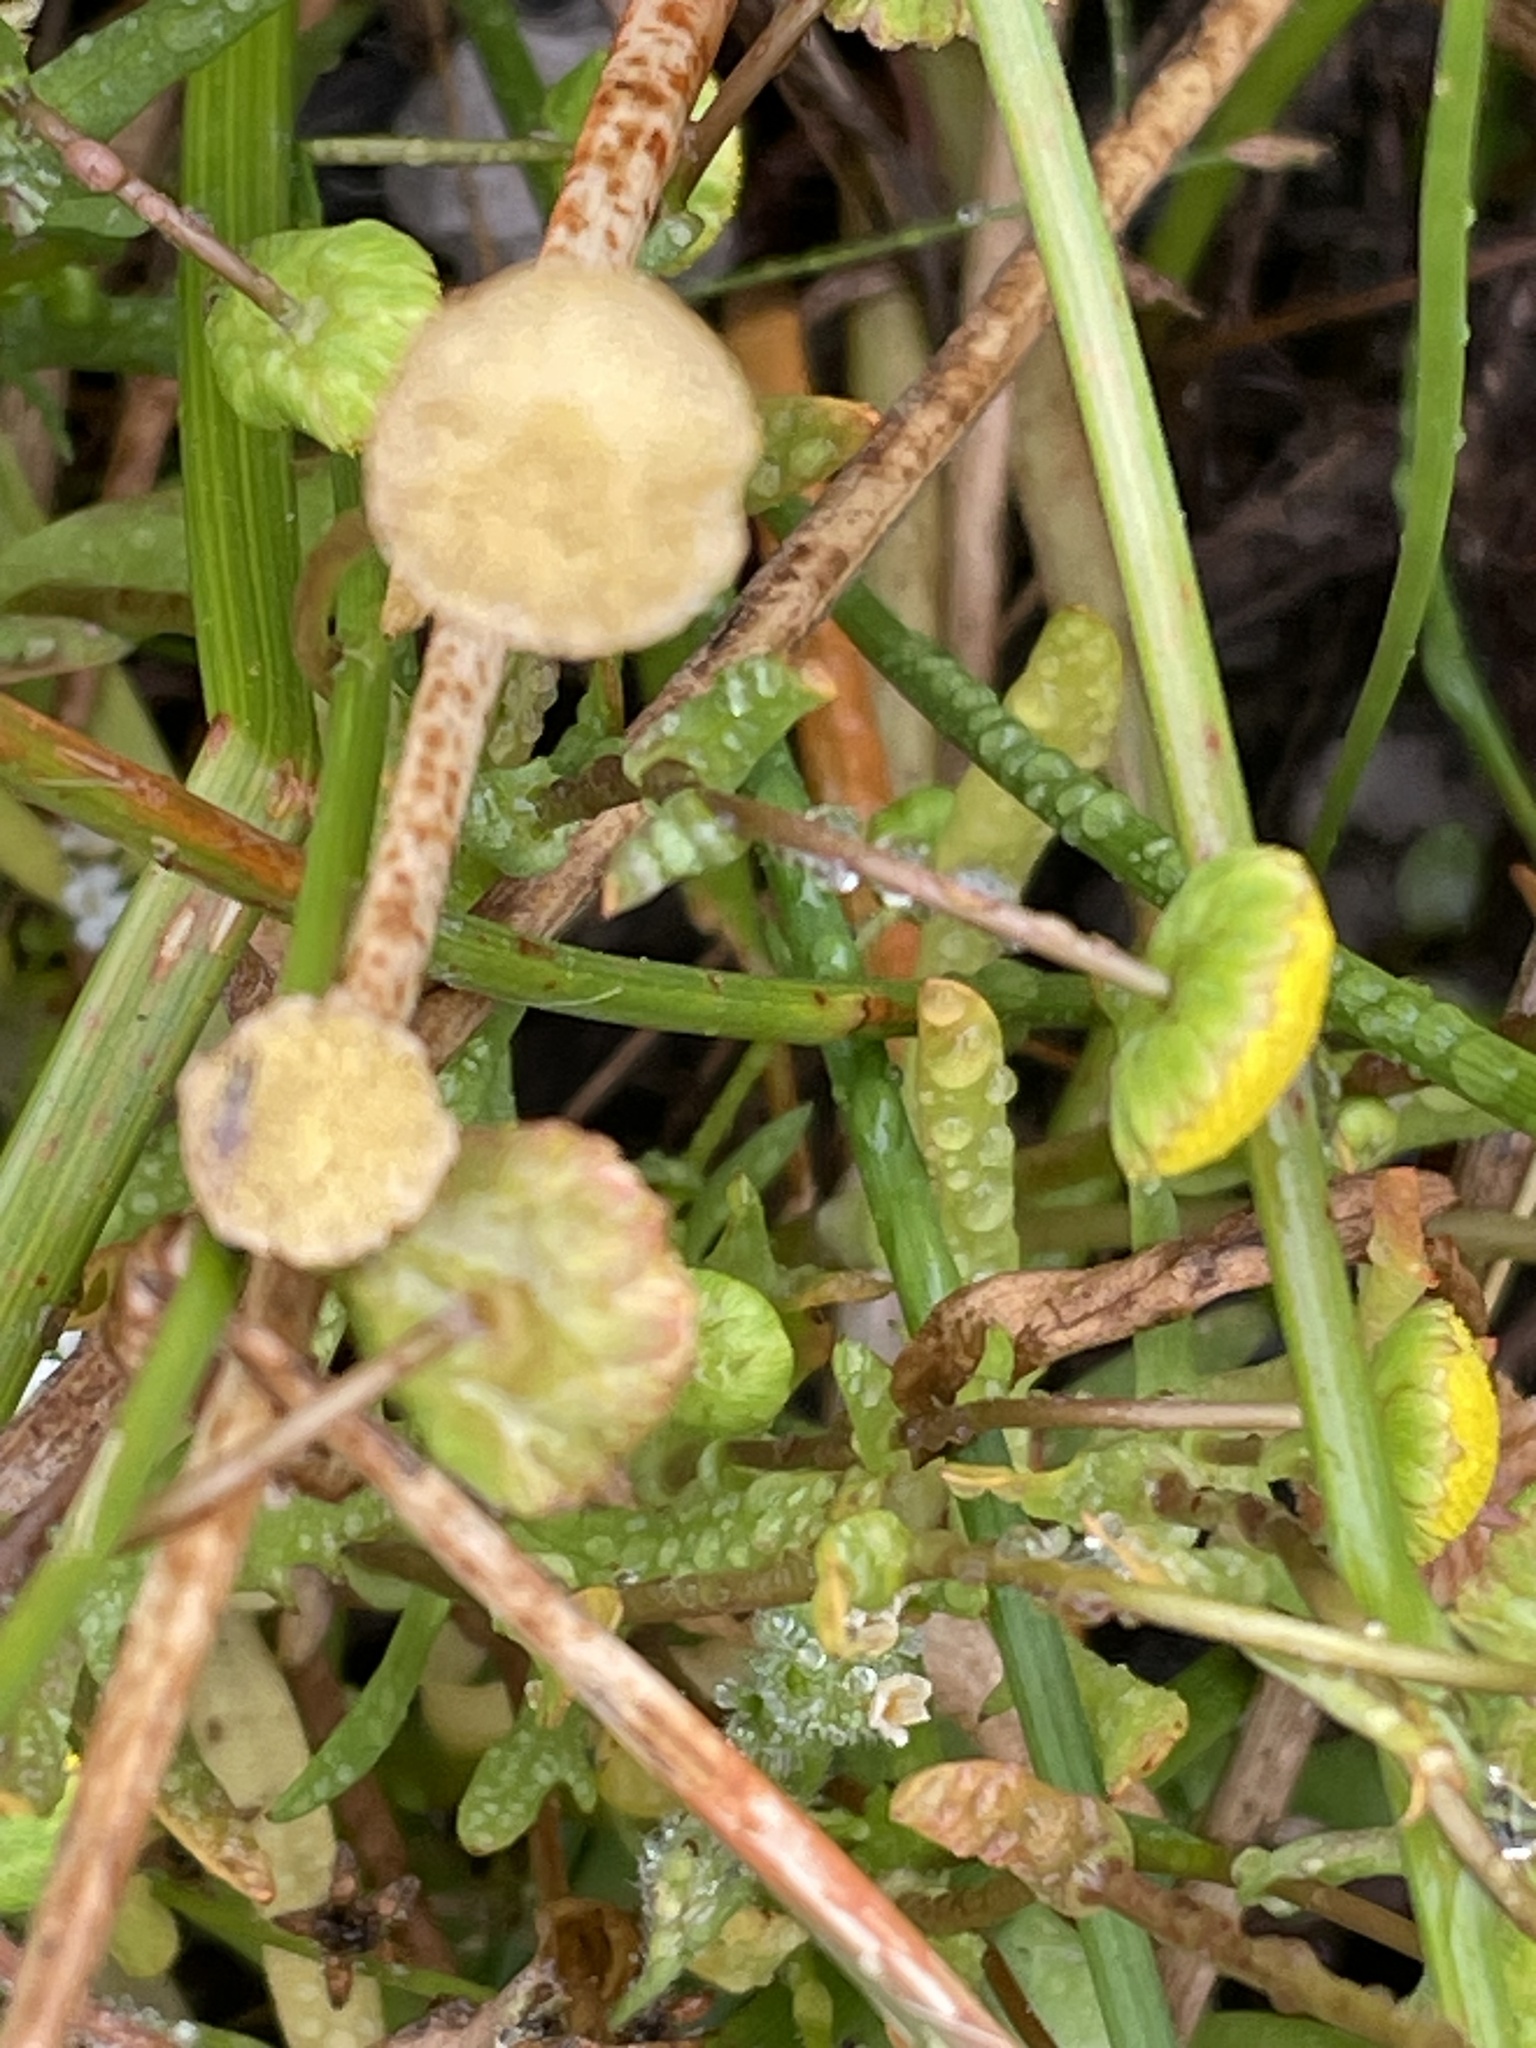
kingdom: Plantae
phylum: Tracheophyta
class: Magnoliopsida
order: Asterales
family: Asteraceae
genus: Cotula
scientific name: Cotula coronopifolia
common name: Buttonweed
